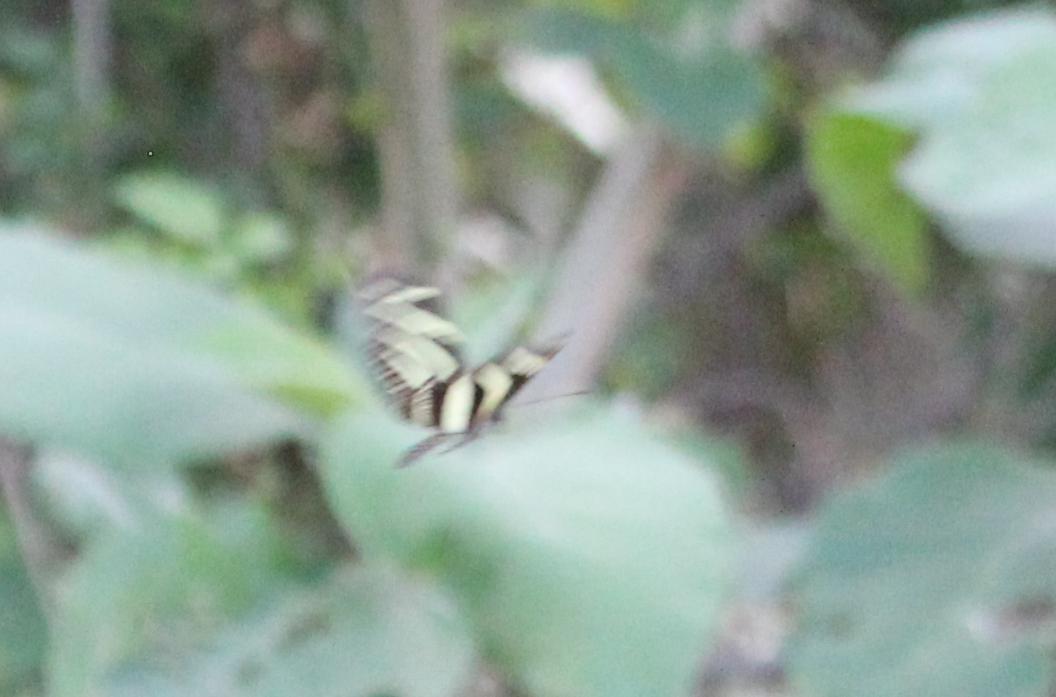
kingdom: Animalia
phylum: Arthropoda
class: Insecta
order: Lepidoptera
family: Nymphalidae
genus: Heliconius
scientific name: Heliconius charithonia
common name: Zebra long wing
